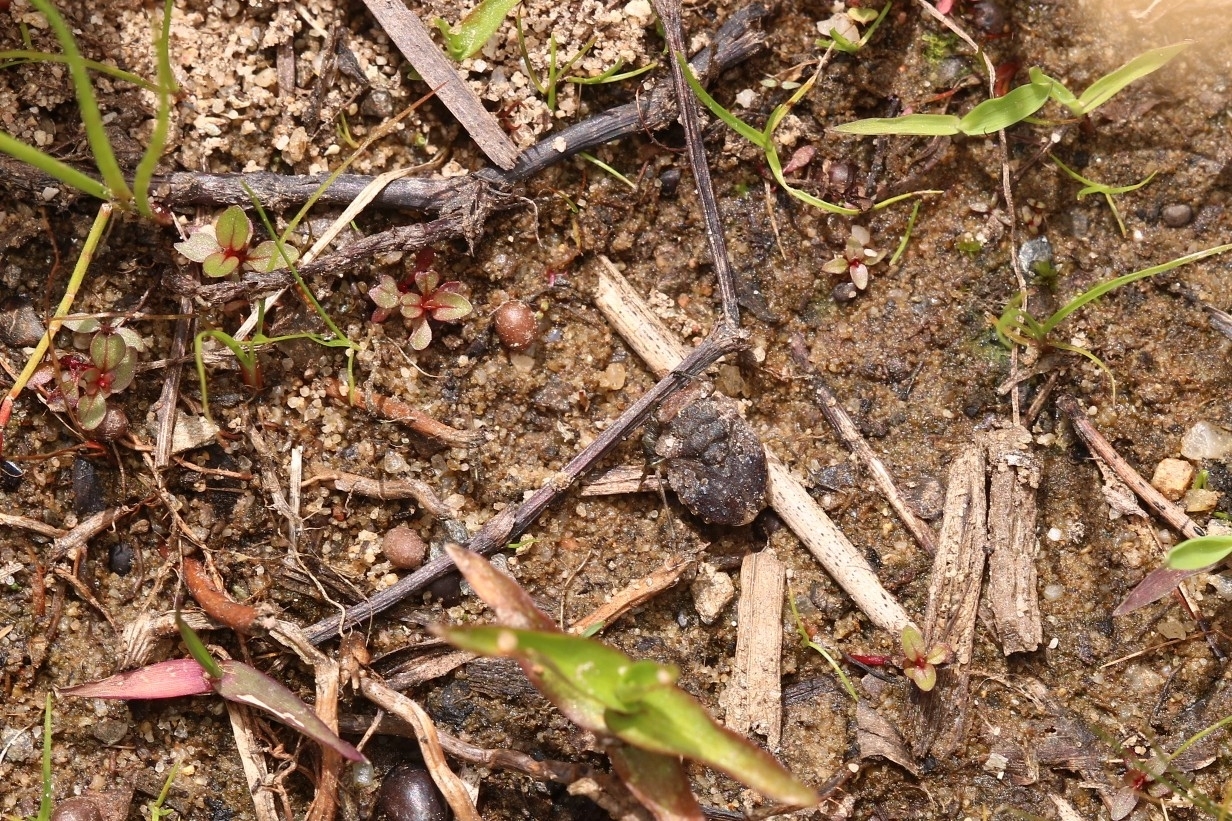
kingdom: Animalia
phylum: Arthropoda
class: Insecta
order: Hemiptera
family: Gelastocoridae
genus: Gelastocoris
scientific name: Gelastocoris oculatus
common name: Toad bug
